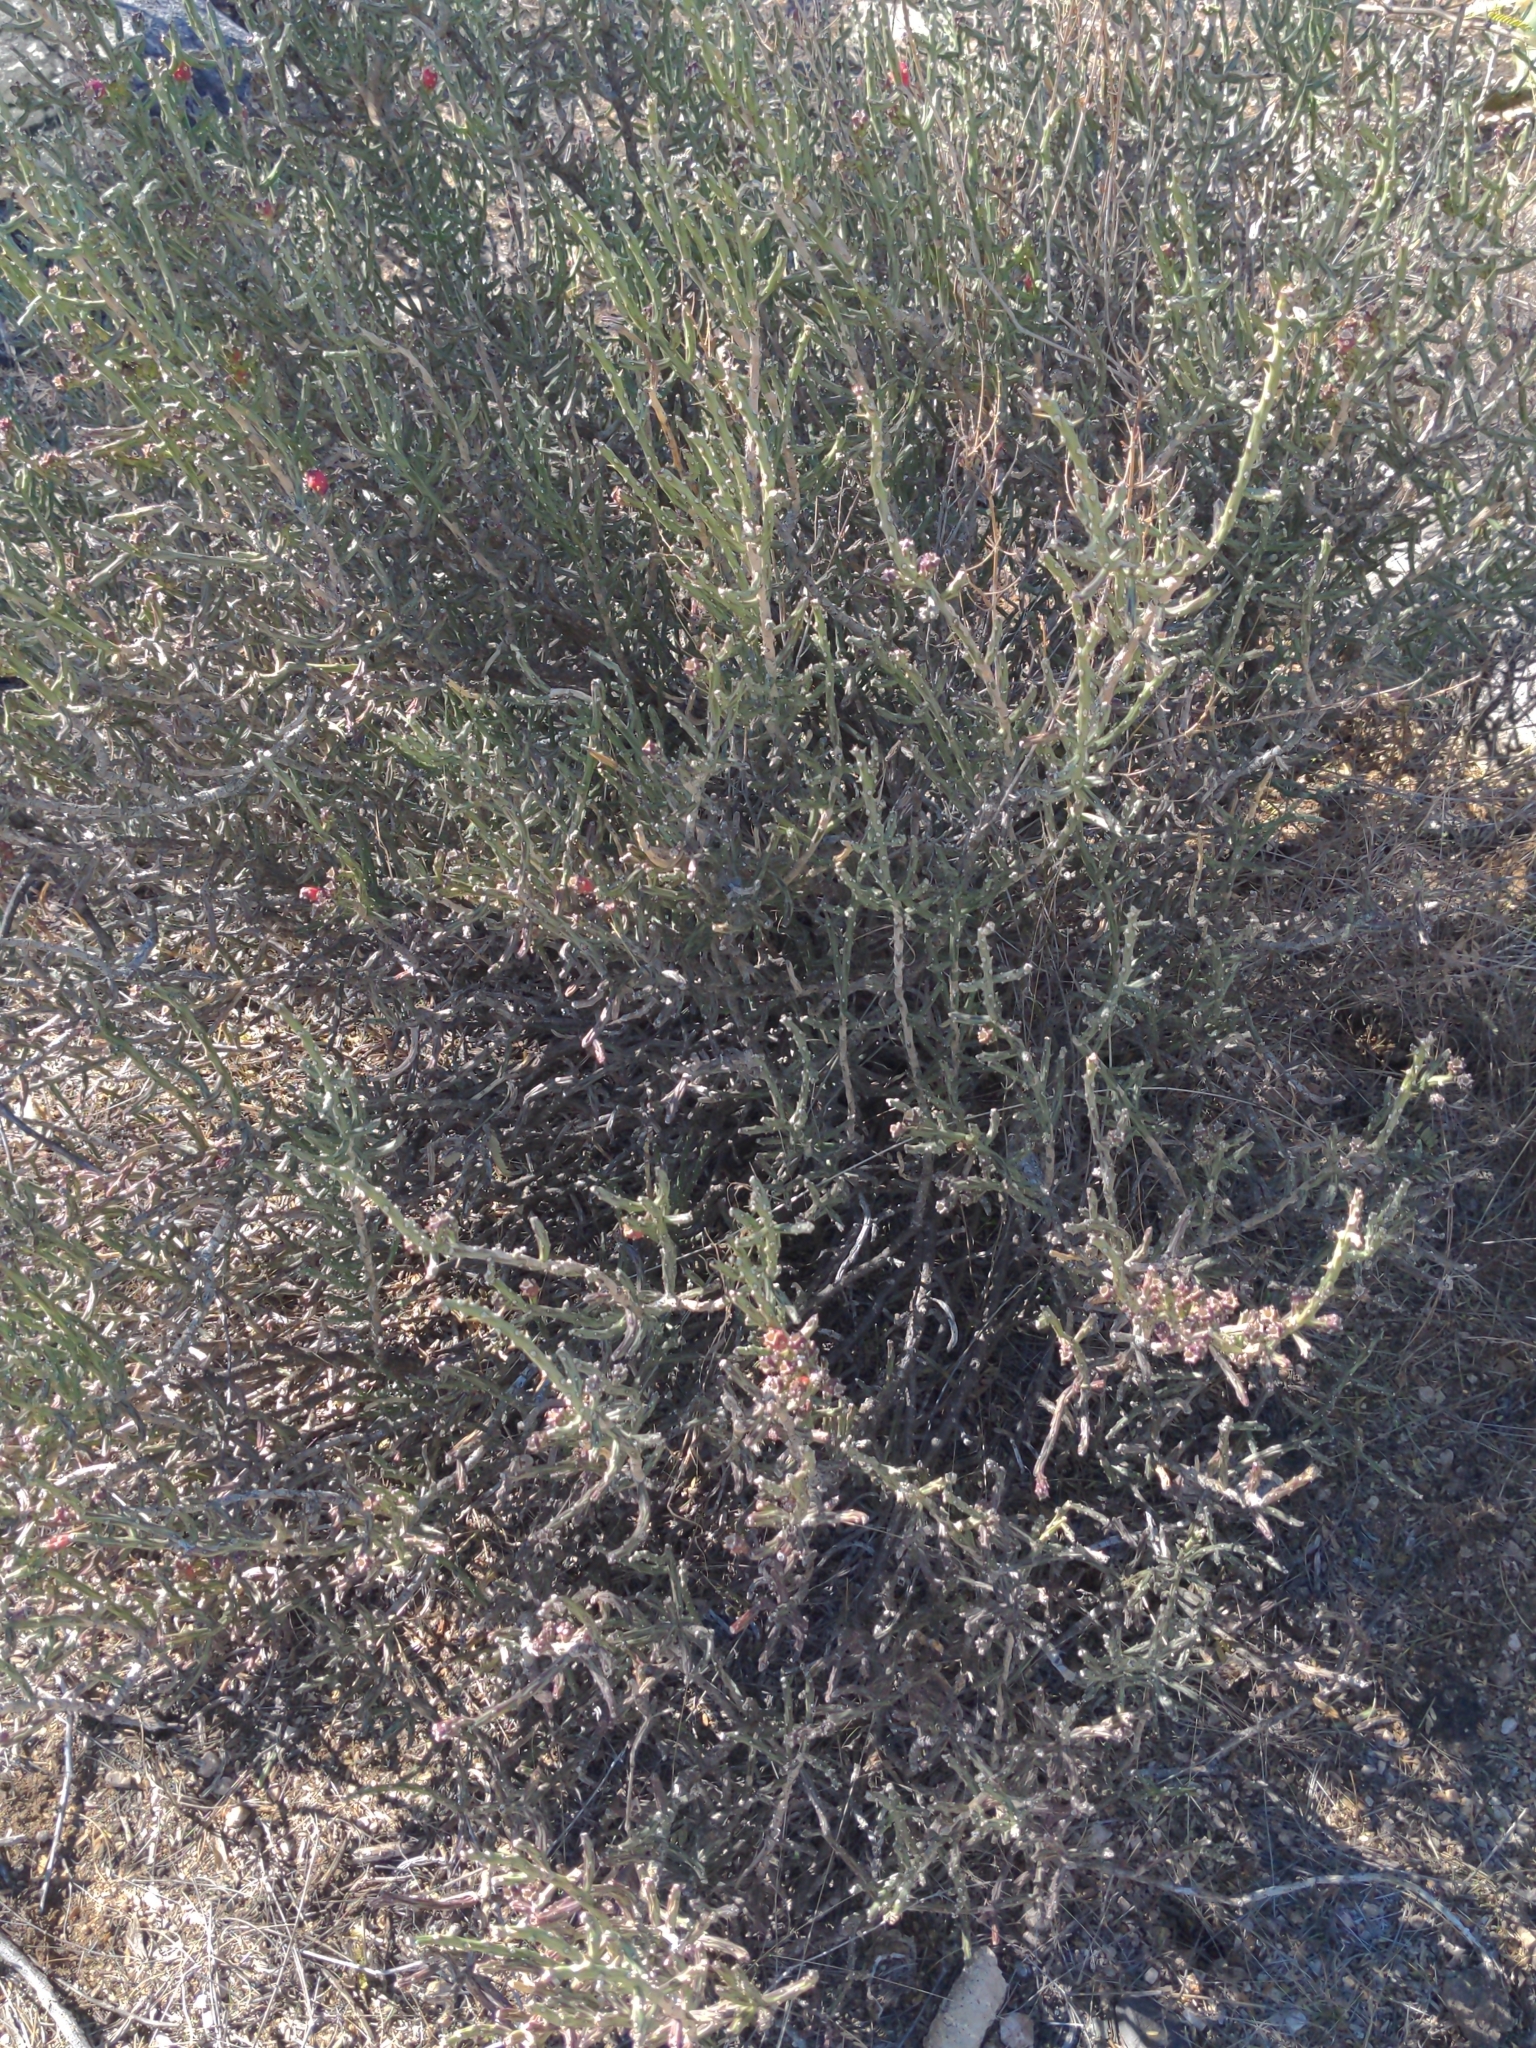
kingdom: Plantae
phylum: Tracheophyta
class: Magnoliopsida
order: Caryophyllales
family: Cactaceae
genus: Cylindropuntia
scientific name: Cylindropuntia leptocaulis
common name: Christmas cactus
